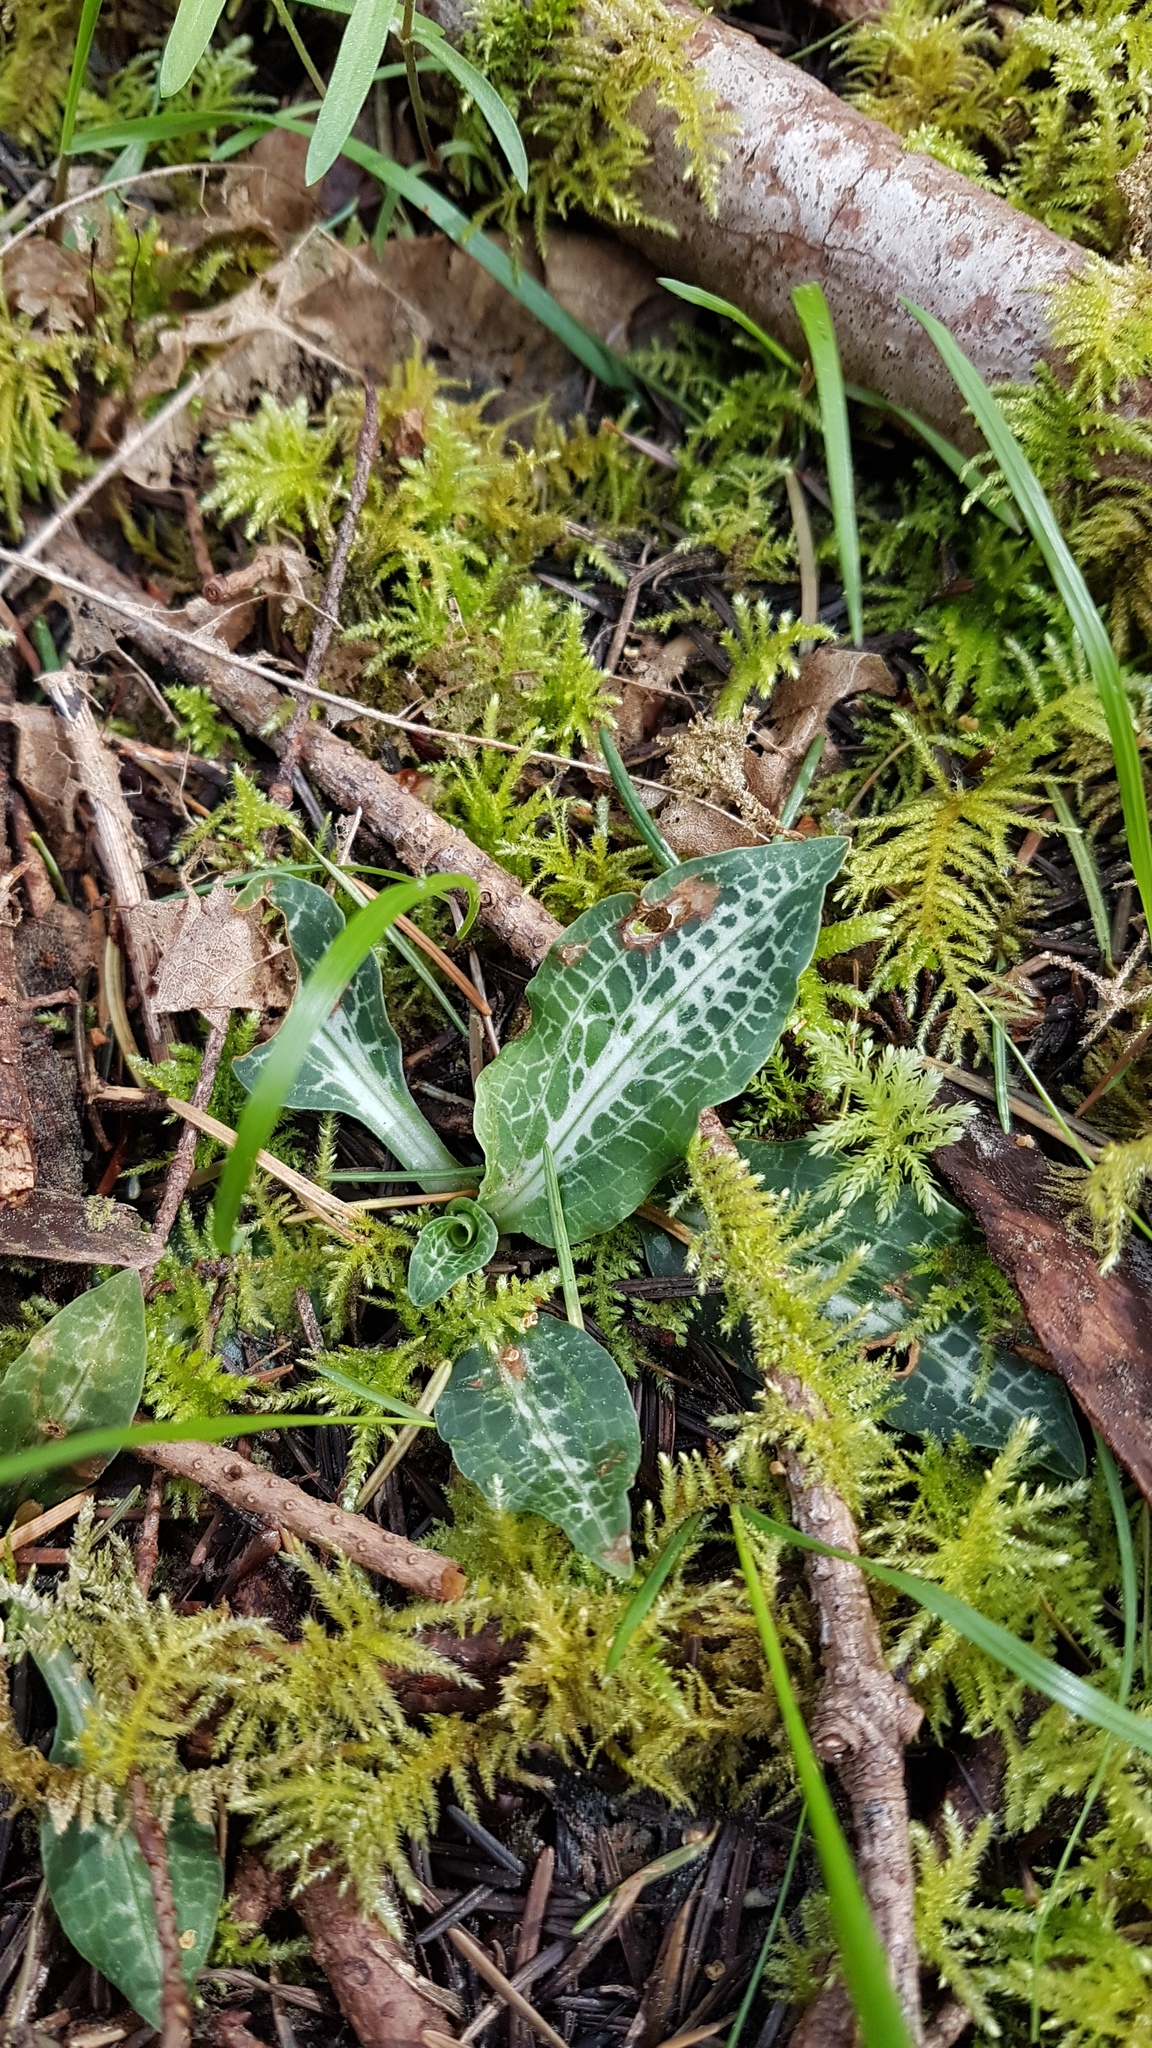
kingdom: Plantae
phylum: Tracheophyta
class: Liliopsida
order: Asparagales
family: Orchidaceae
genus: Goodyera
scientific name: Goodyera oblongifolia
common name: Giant rattlesnake-plantain
